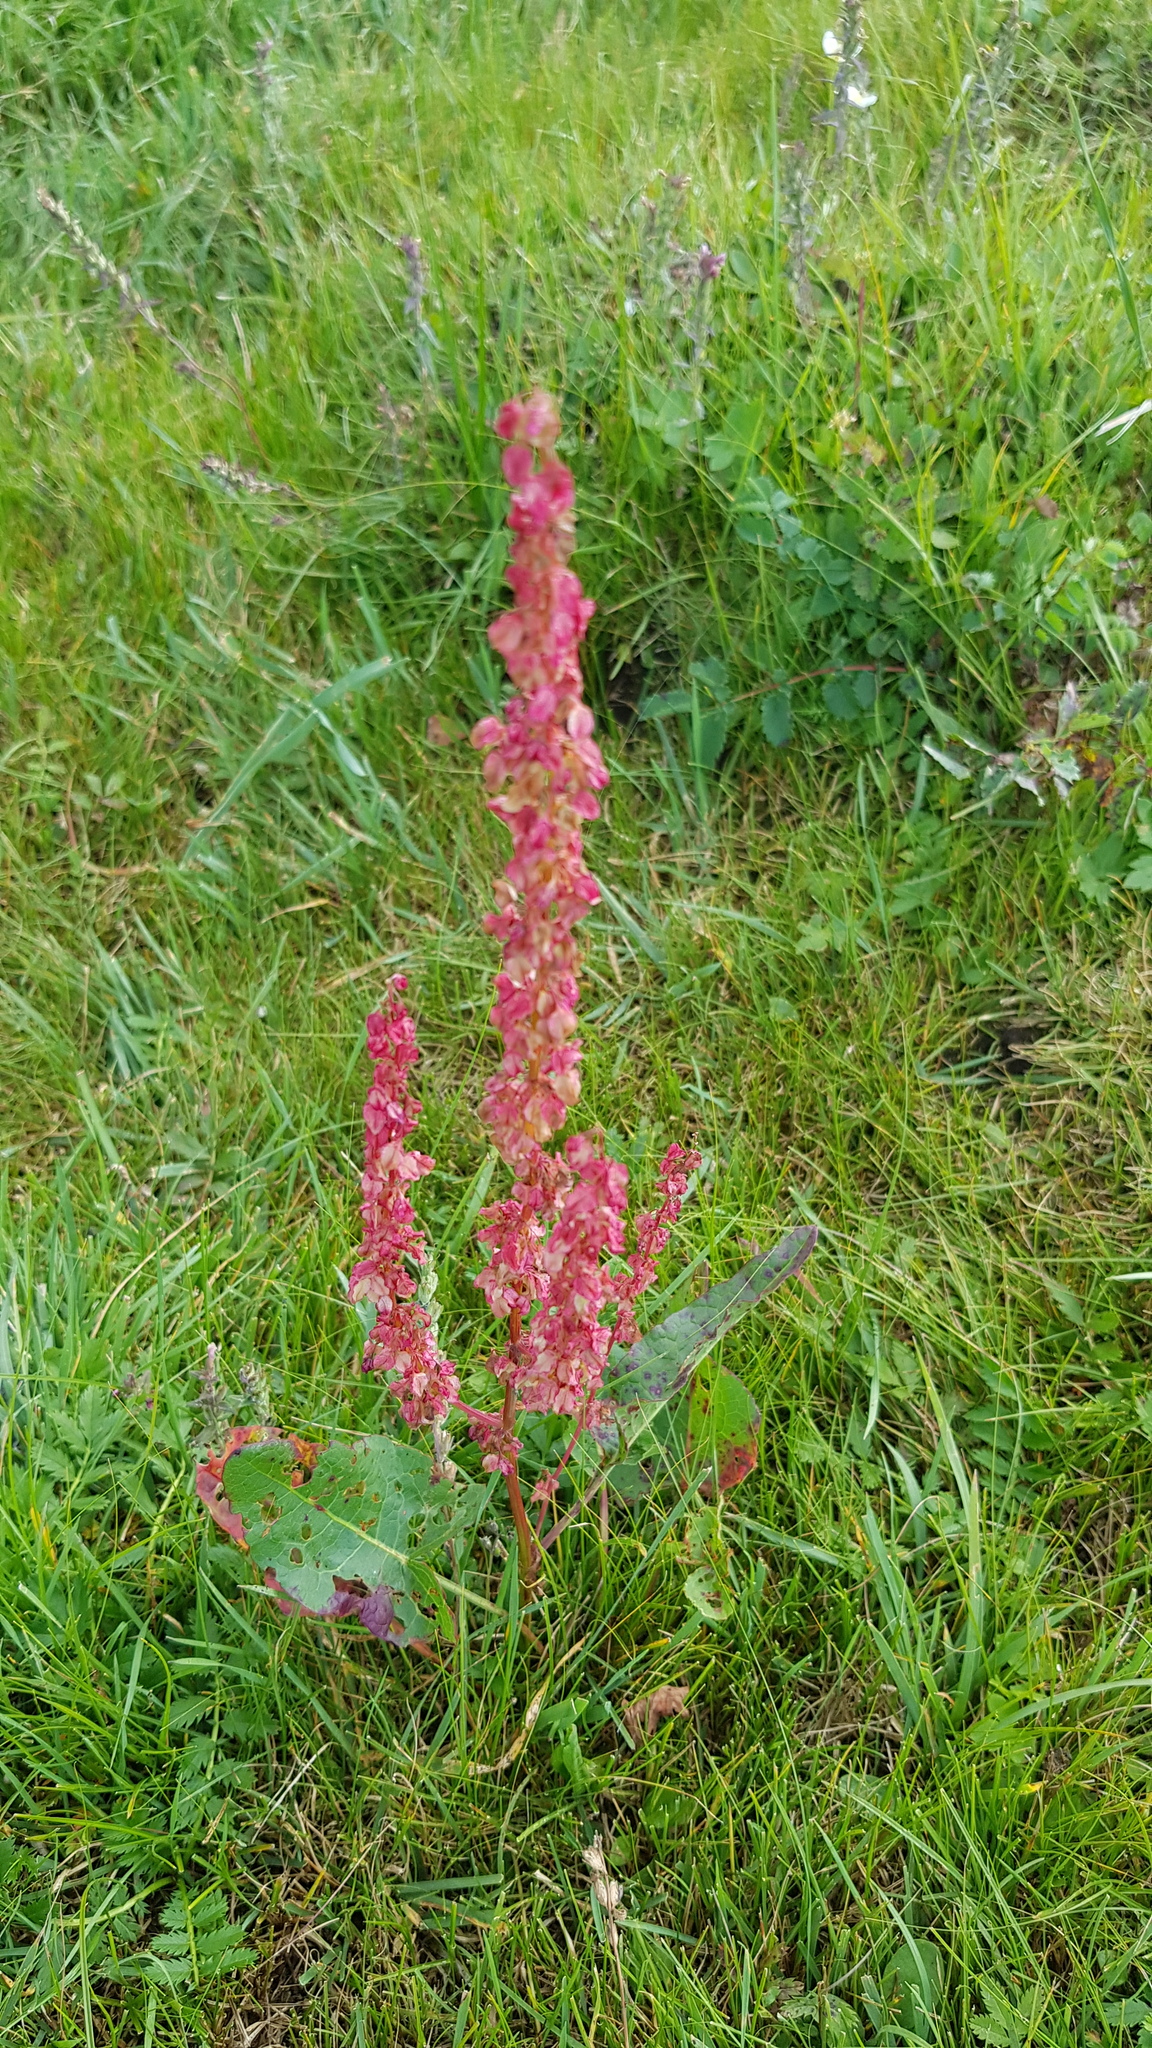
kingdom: Plantae
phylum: Tracheophyta
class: Magnoliopsida
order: Caryophyllales
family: Polygonaceae
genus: Rumex
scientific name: Rumex aquaticus
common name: Scottish dock
